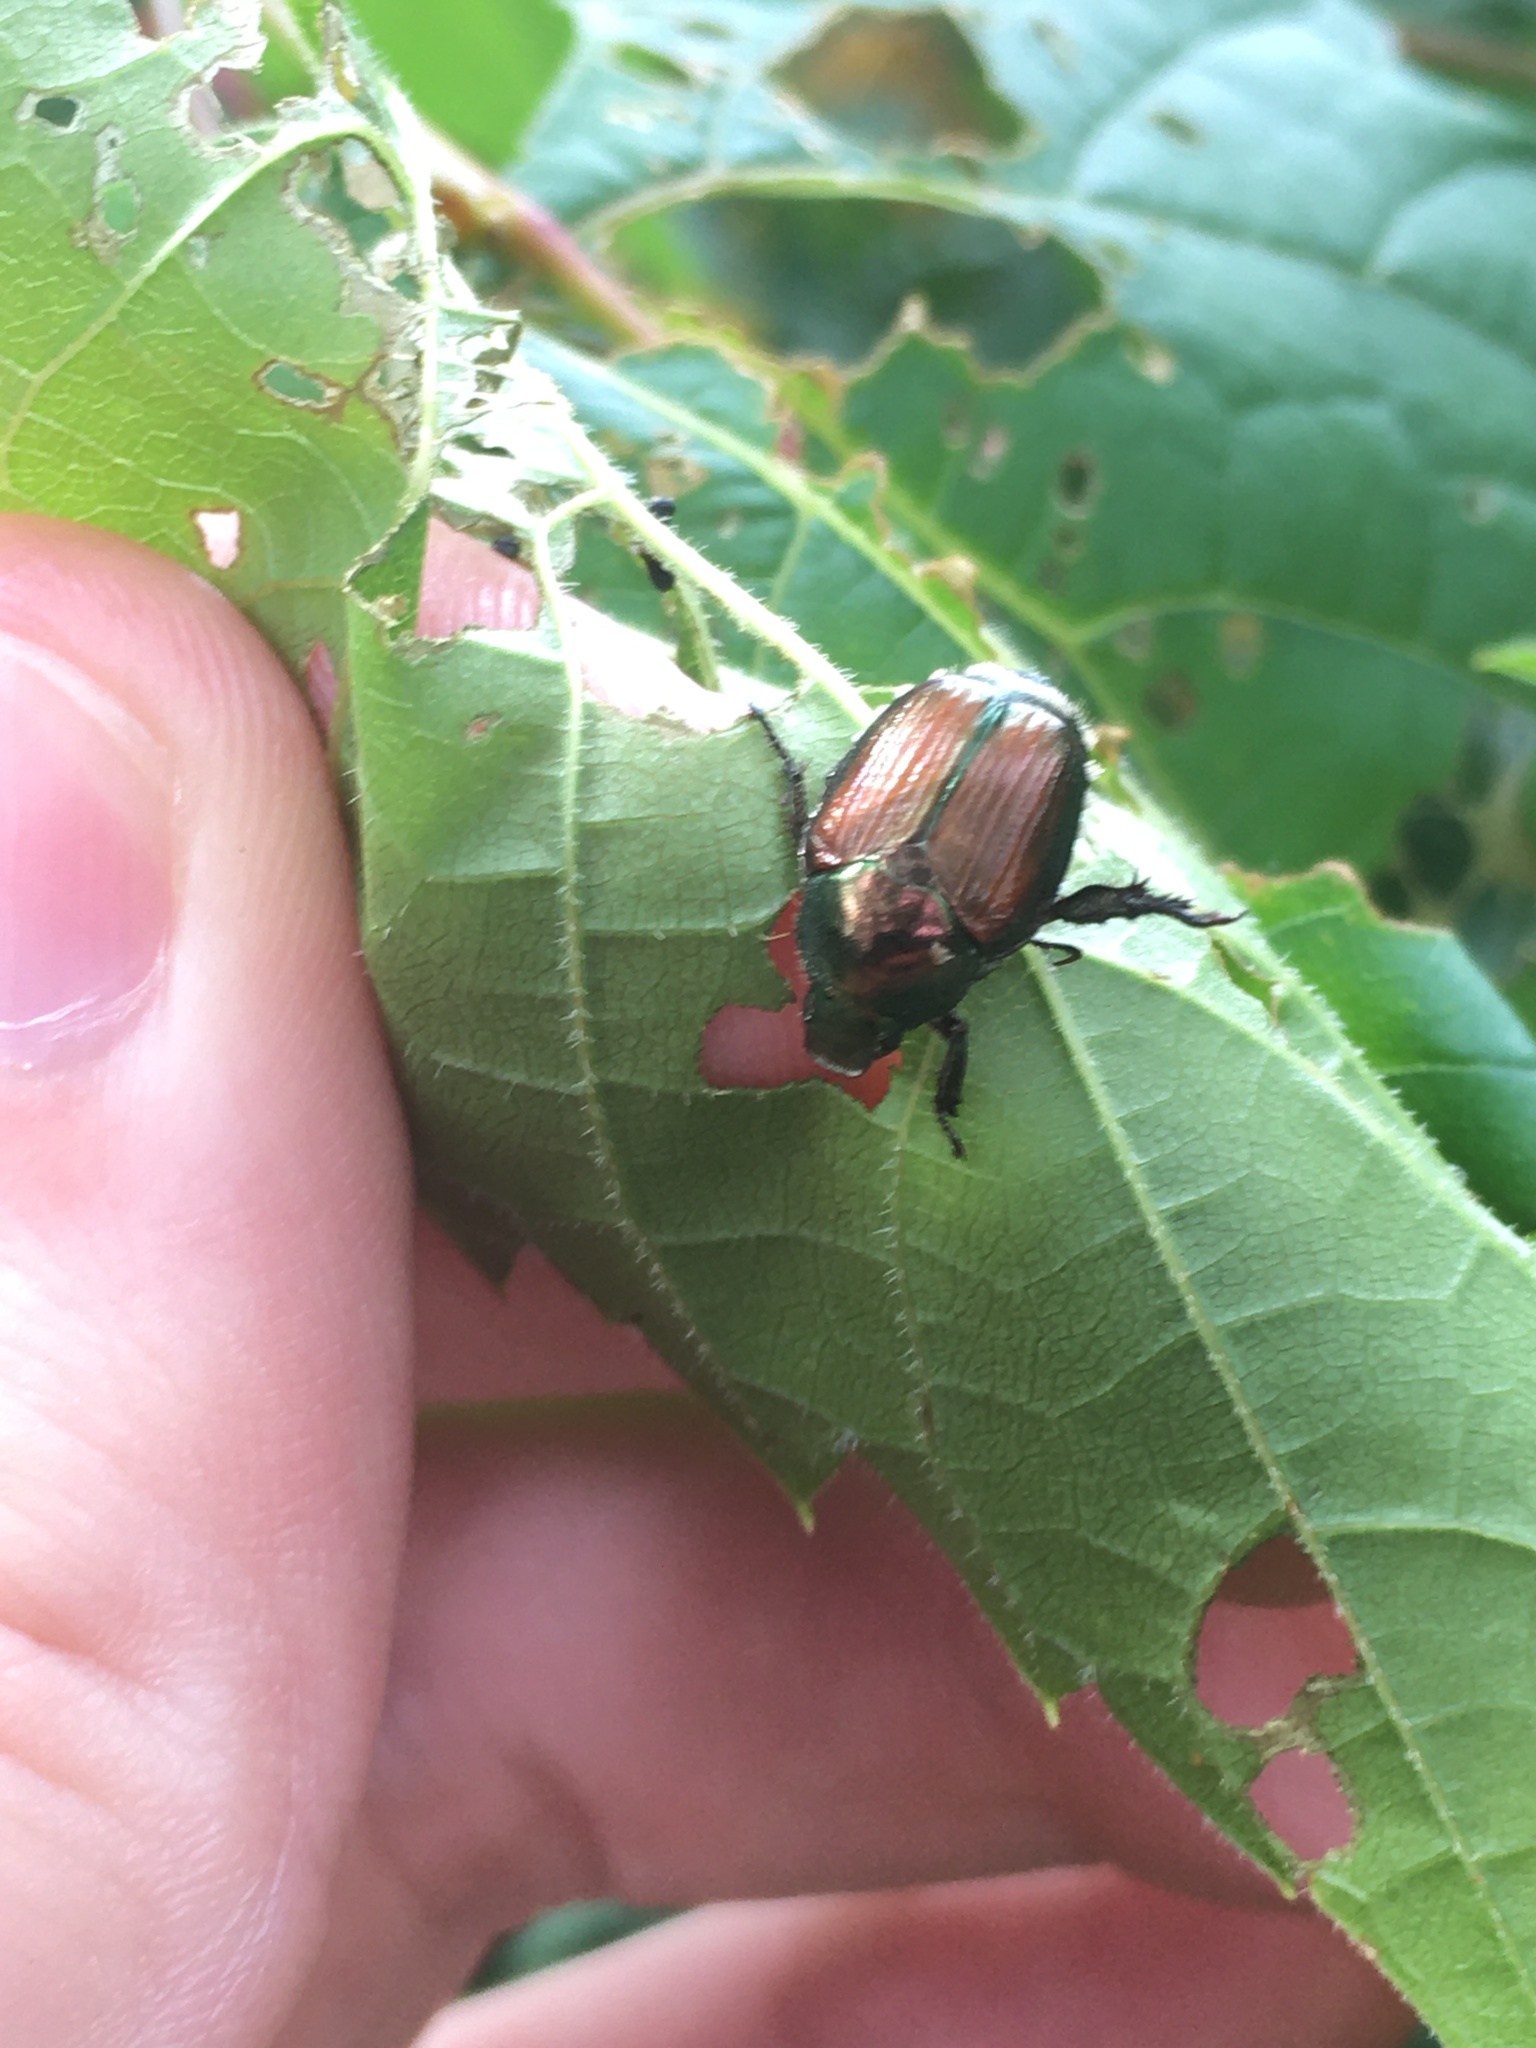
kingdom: Animalia
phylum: Arthropoda
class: Insecta
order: Coleoptera
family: Scarabaeidae
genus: Popillia
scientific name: Popillia japonica
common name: Japanese beetle
